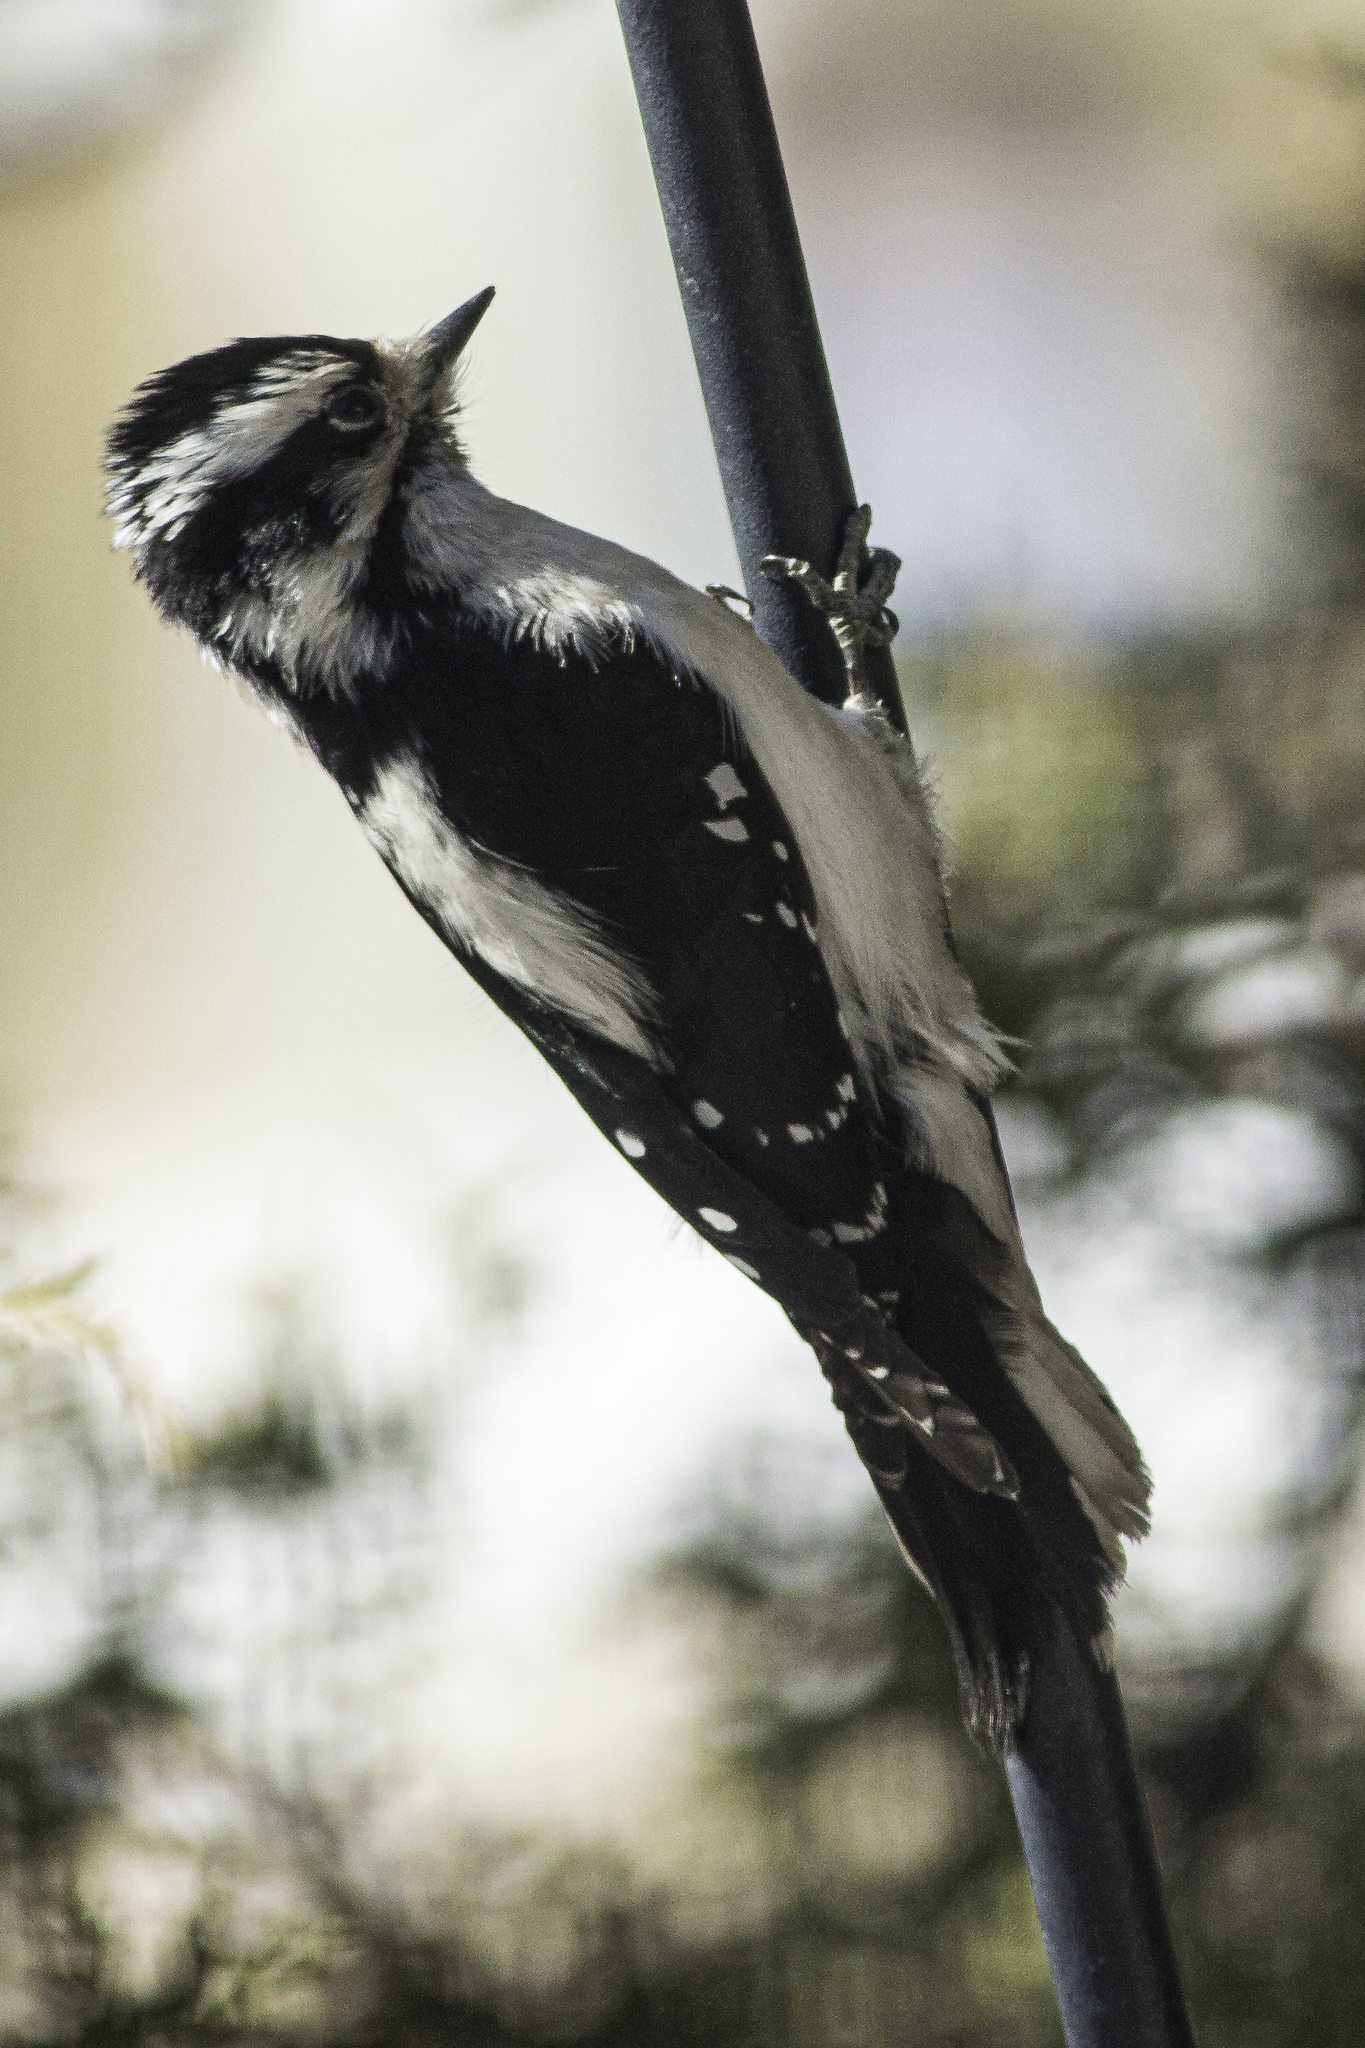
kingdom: Animalia
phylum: Chordata
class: Aves
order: Piciformes
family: Picidae
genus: Dryobates
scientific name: Dryobates pubescens
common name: Downy woodpecker
